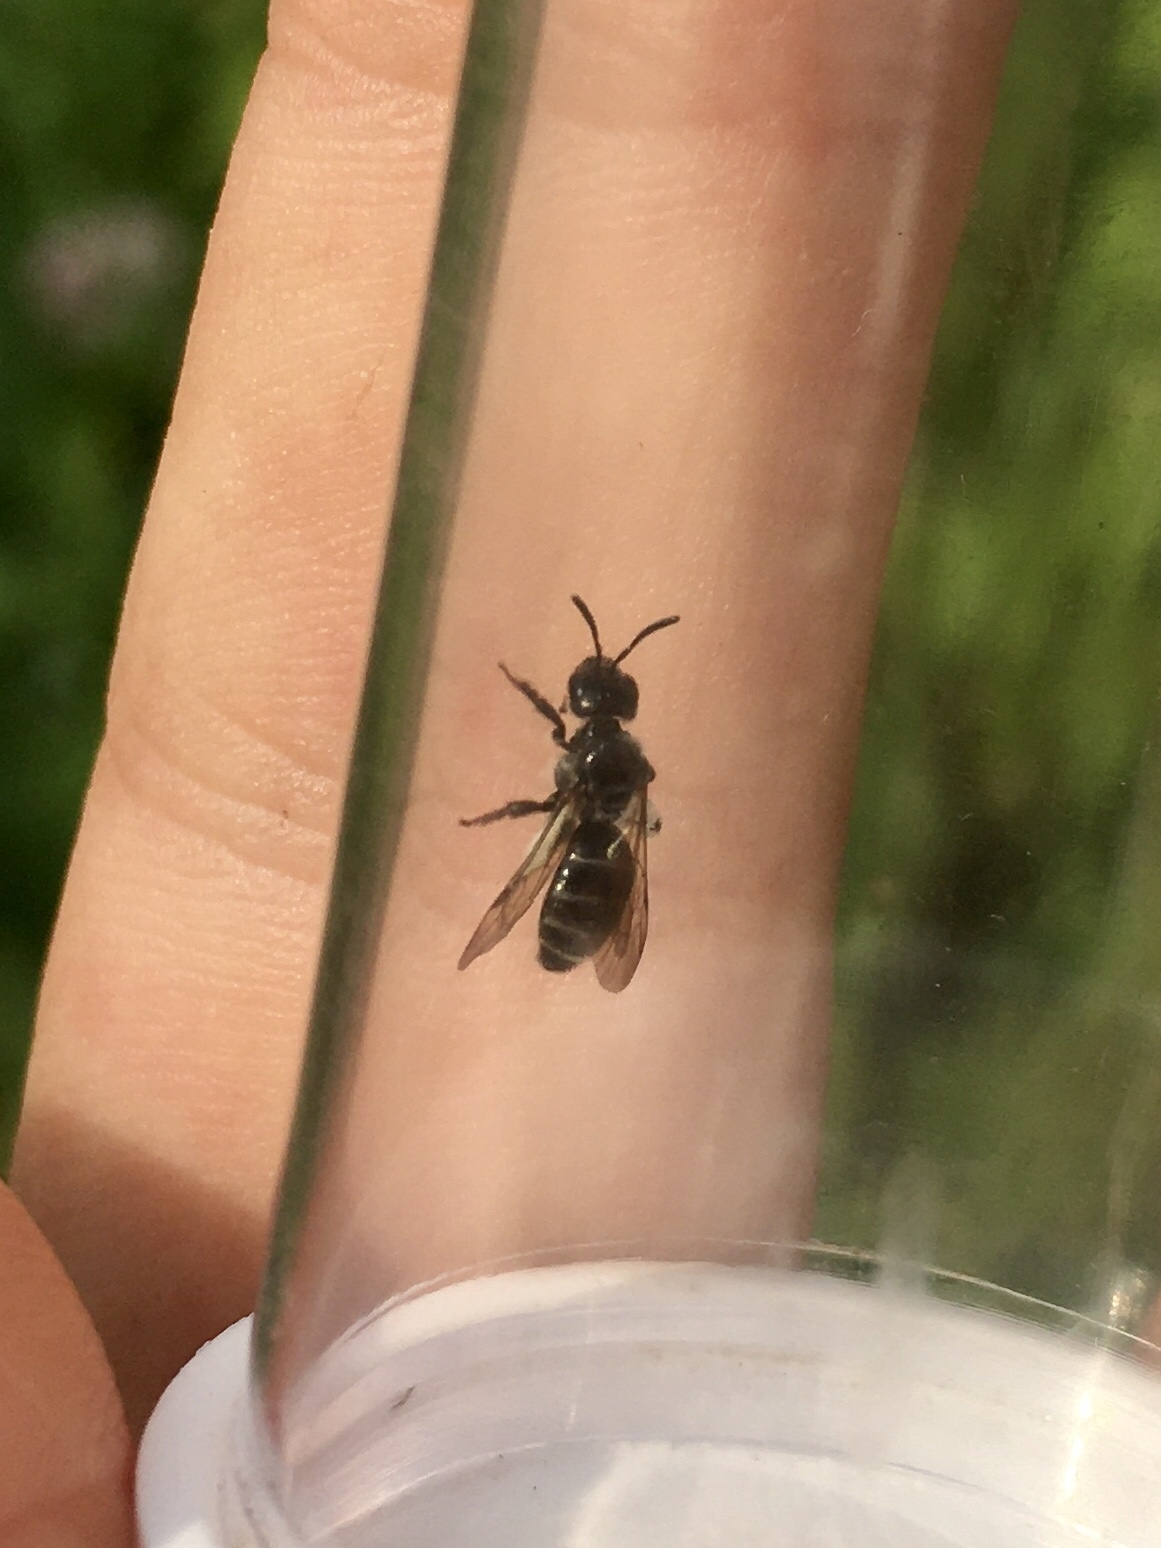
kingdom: Animalia
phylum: Arthropoda
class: Insecta
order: Hymenoptera
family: Halictidae
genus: Dufourea
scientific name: Dufourea monardae
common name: Beebalm shortface
